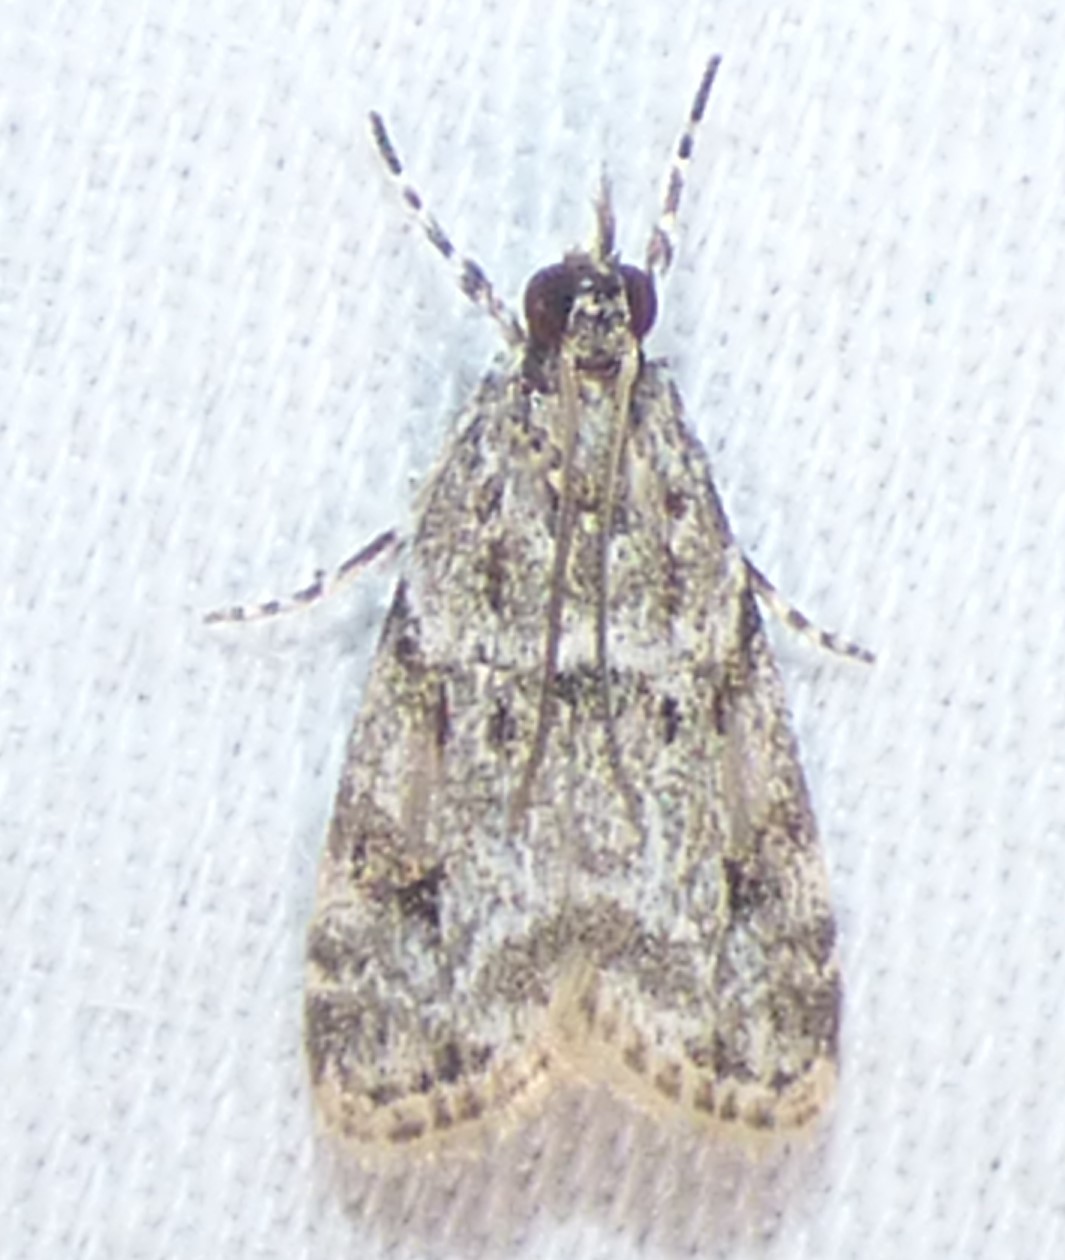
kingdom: Animalia
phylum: Arthropoda
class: Insecta
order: Lepidoptera
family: Crambidae
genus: Eudonia
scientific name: Eudonia heterosalis
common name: Mcdunnough's eudonia
